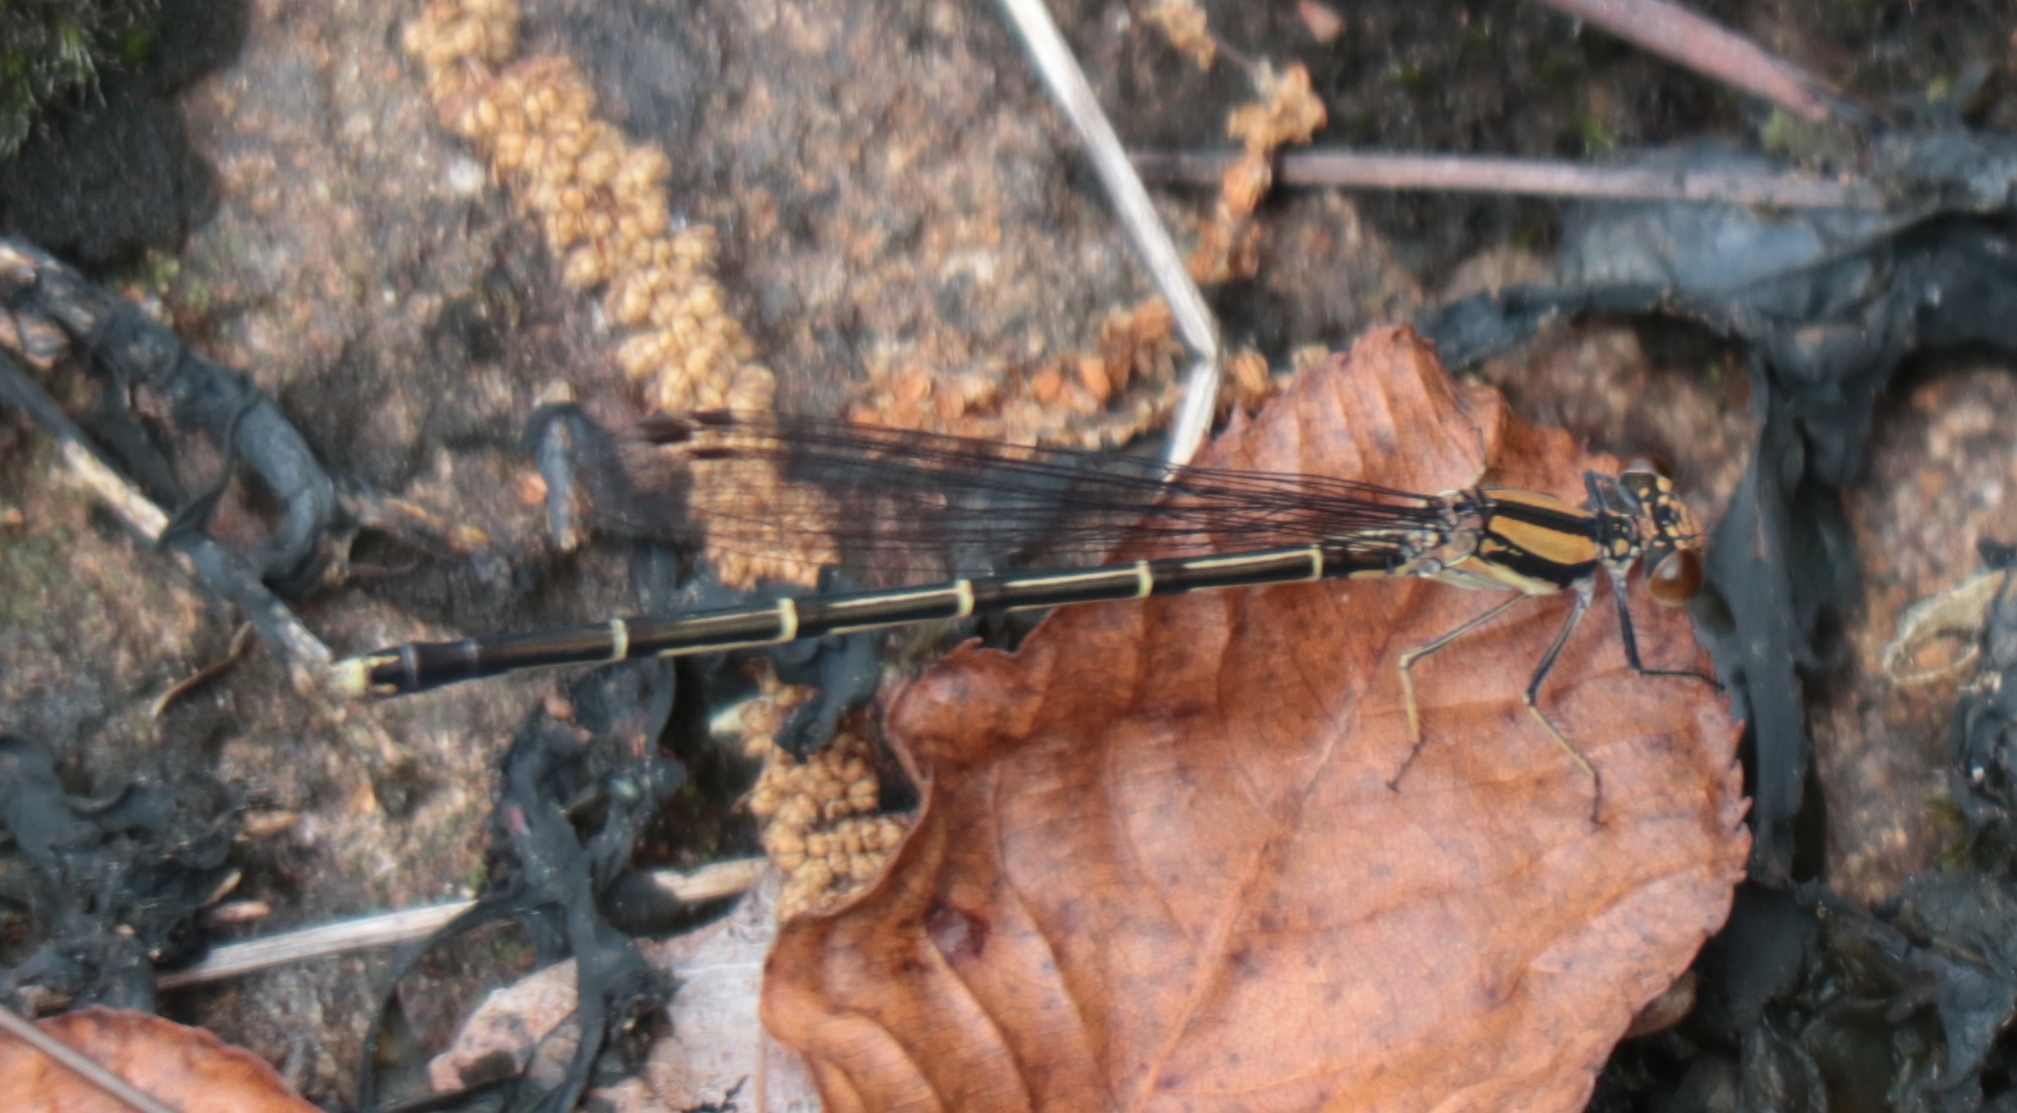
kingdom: Animalia
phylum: Arthropoda
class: Insecta
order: Odonata
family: Coenagrionidae
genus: Argia
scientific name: Argia tibialis
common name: Blue-tipped dancer
